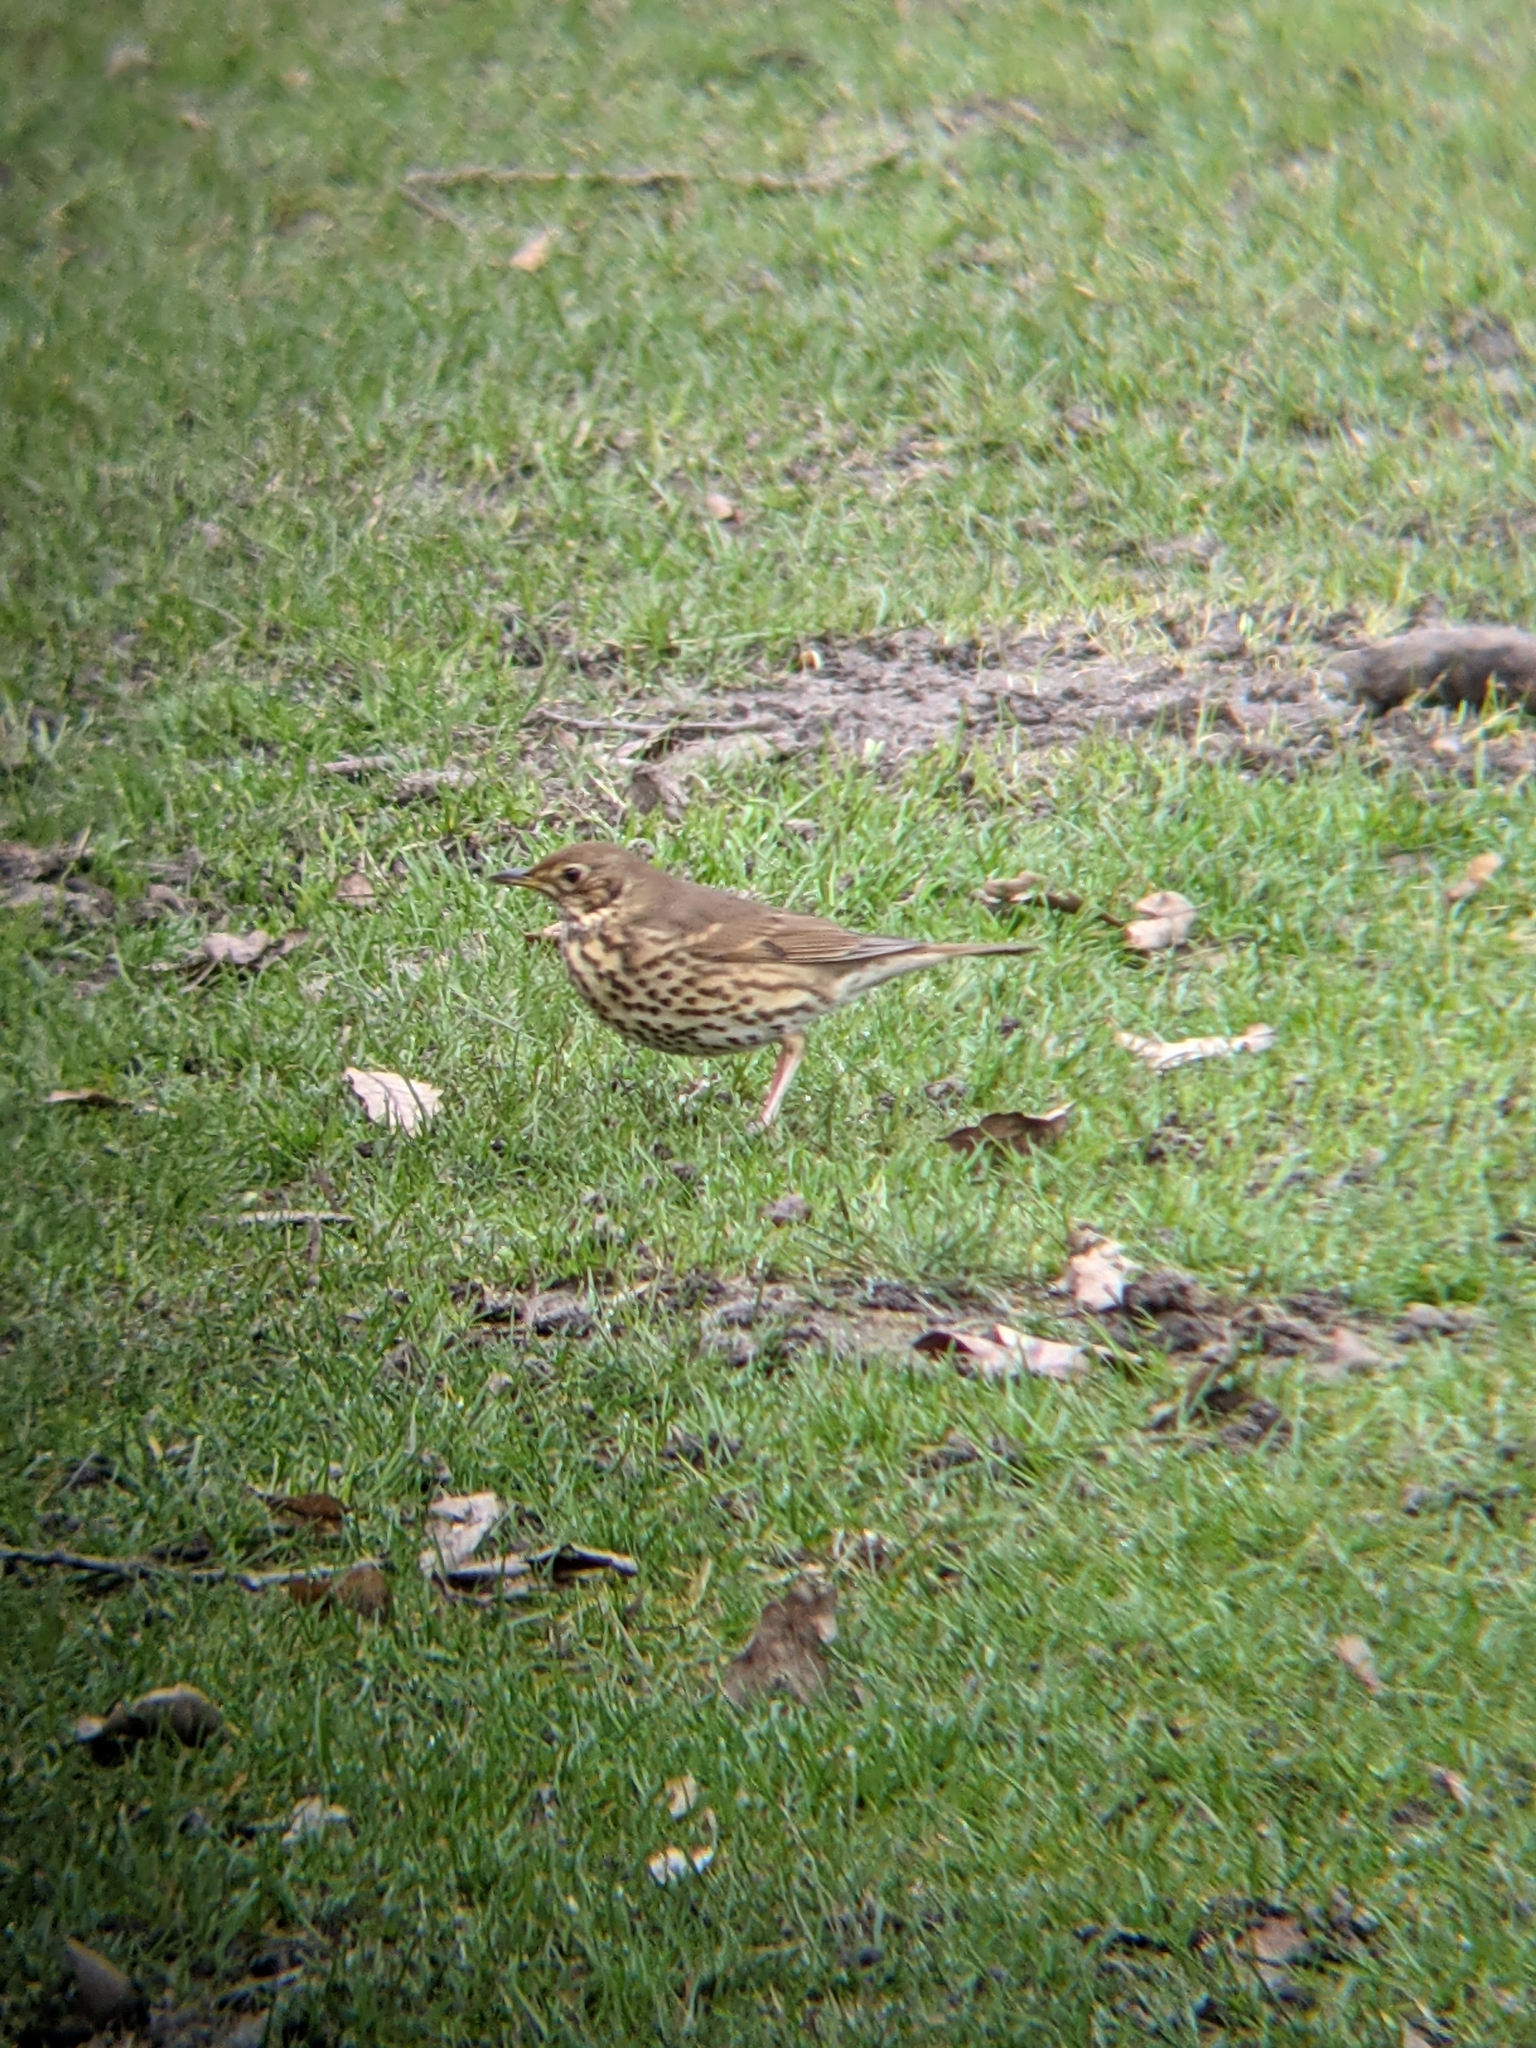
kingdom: Animalia
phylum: Chordata
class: Aves
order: Passeriformes
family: Turdidae
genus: Turdus
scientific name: Turdus philomelos
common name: Song thrush
